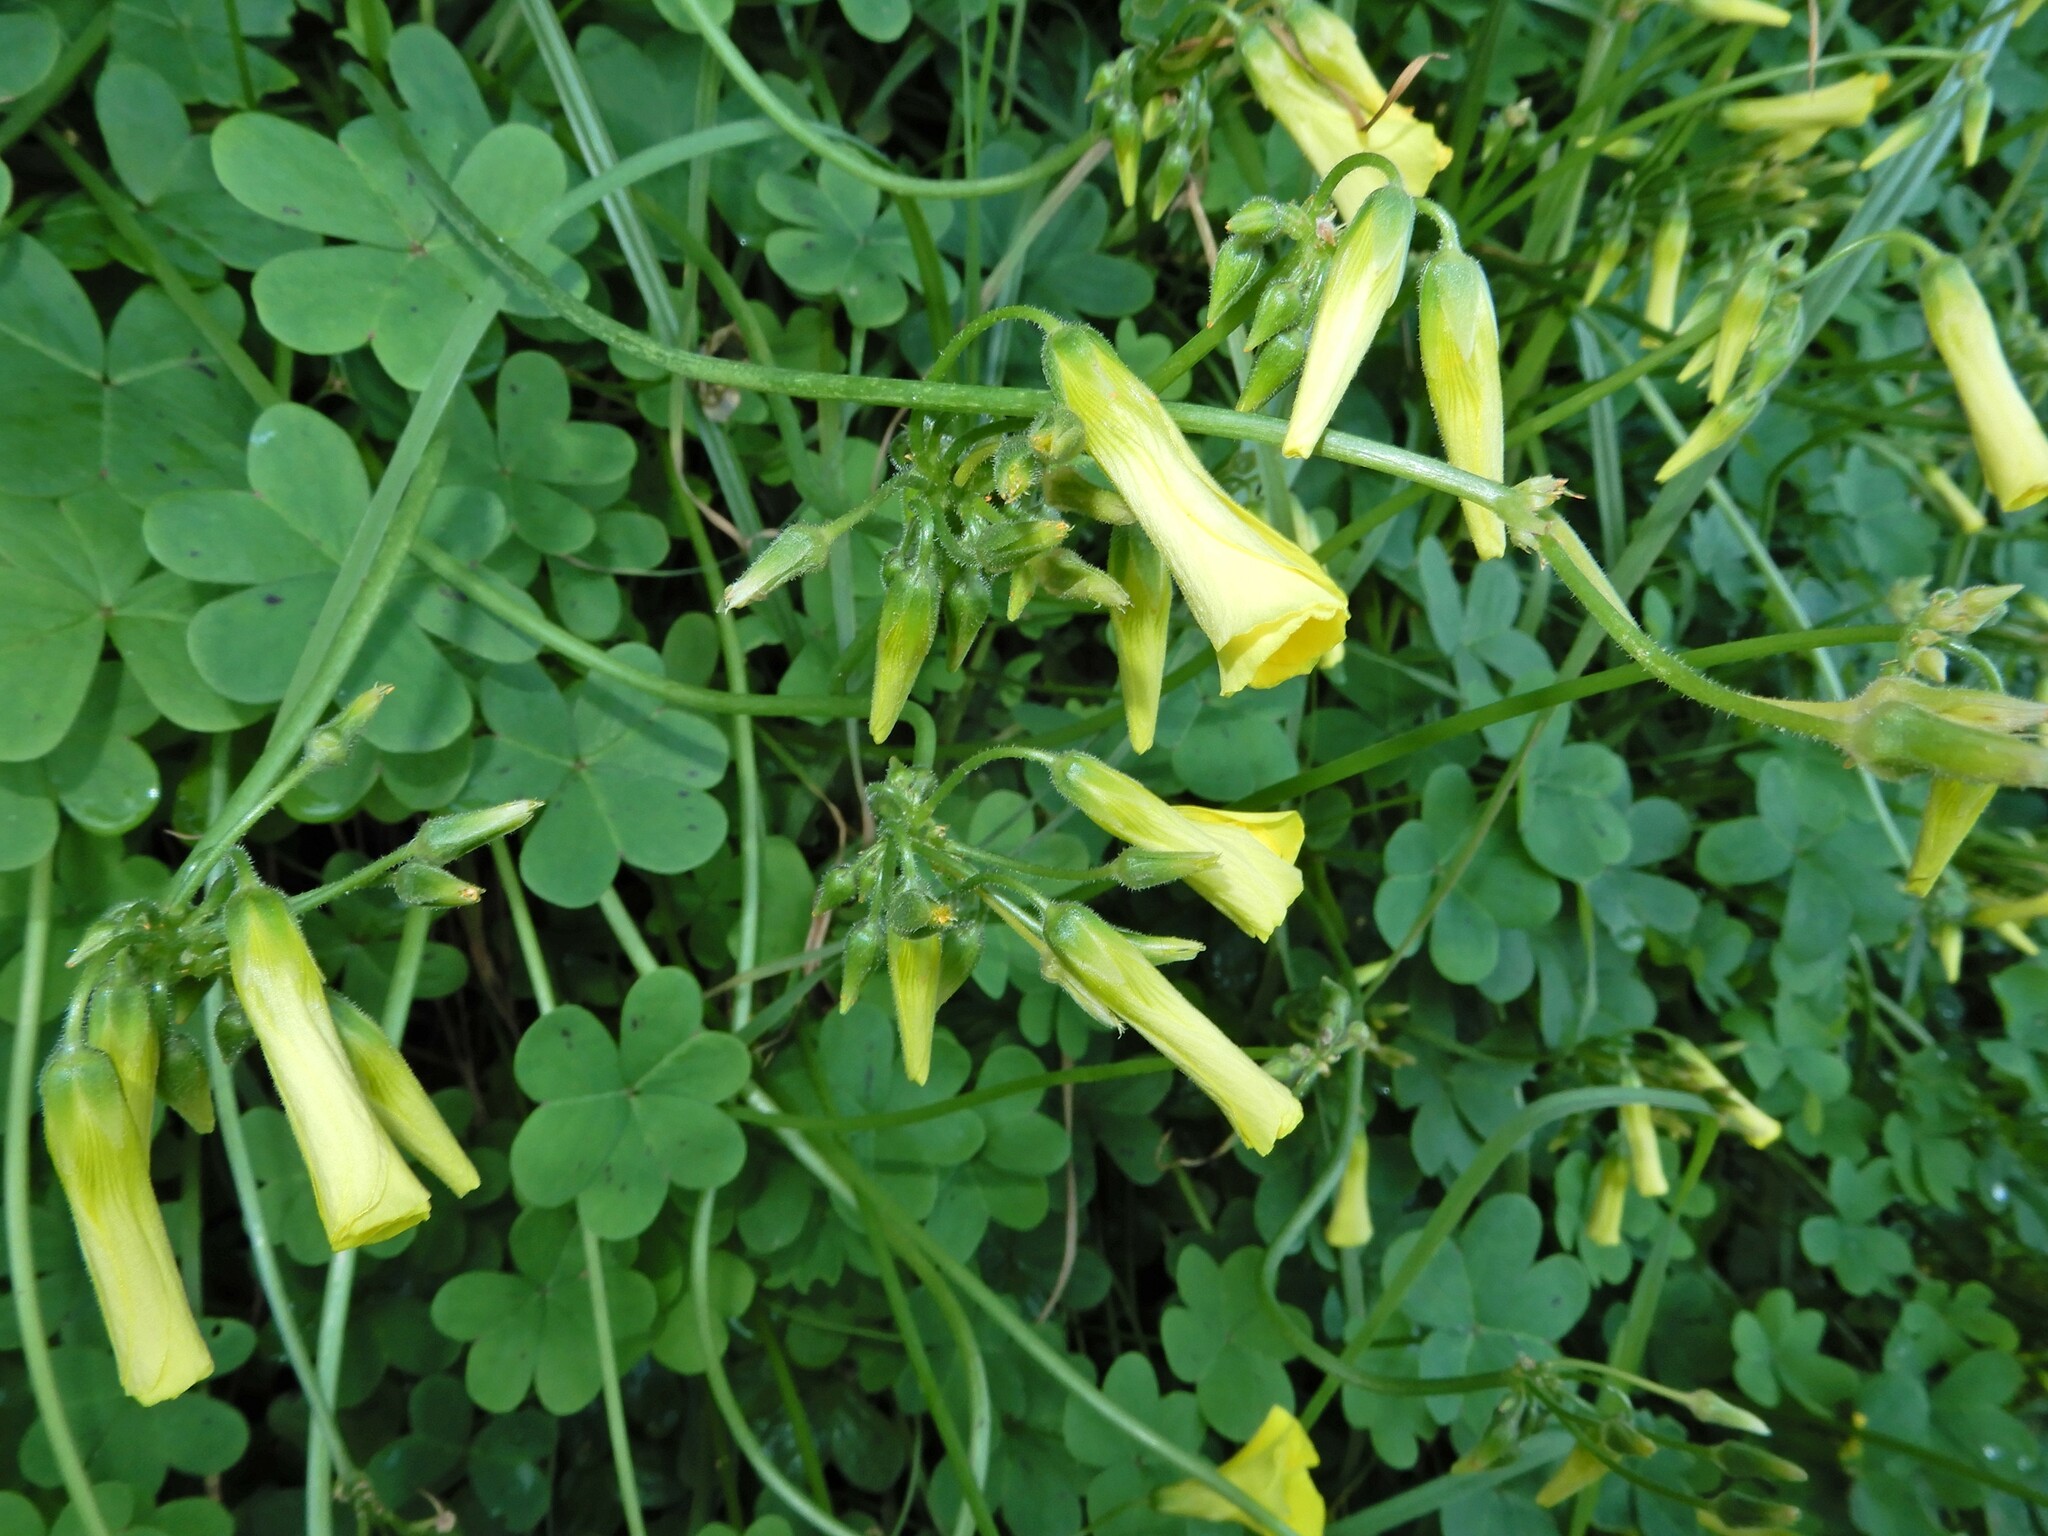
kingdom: Plantae
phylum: Tracheophyta
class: Magnoliopsida
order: Oxalidales
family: Oxalidaceae
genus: Oxalis
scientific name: Oxalis pes-caprae
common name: Bermuda-buttercup
